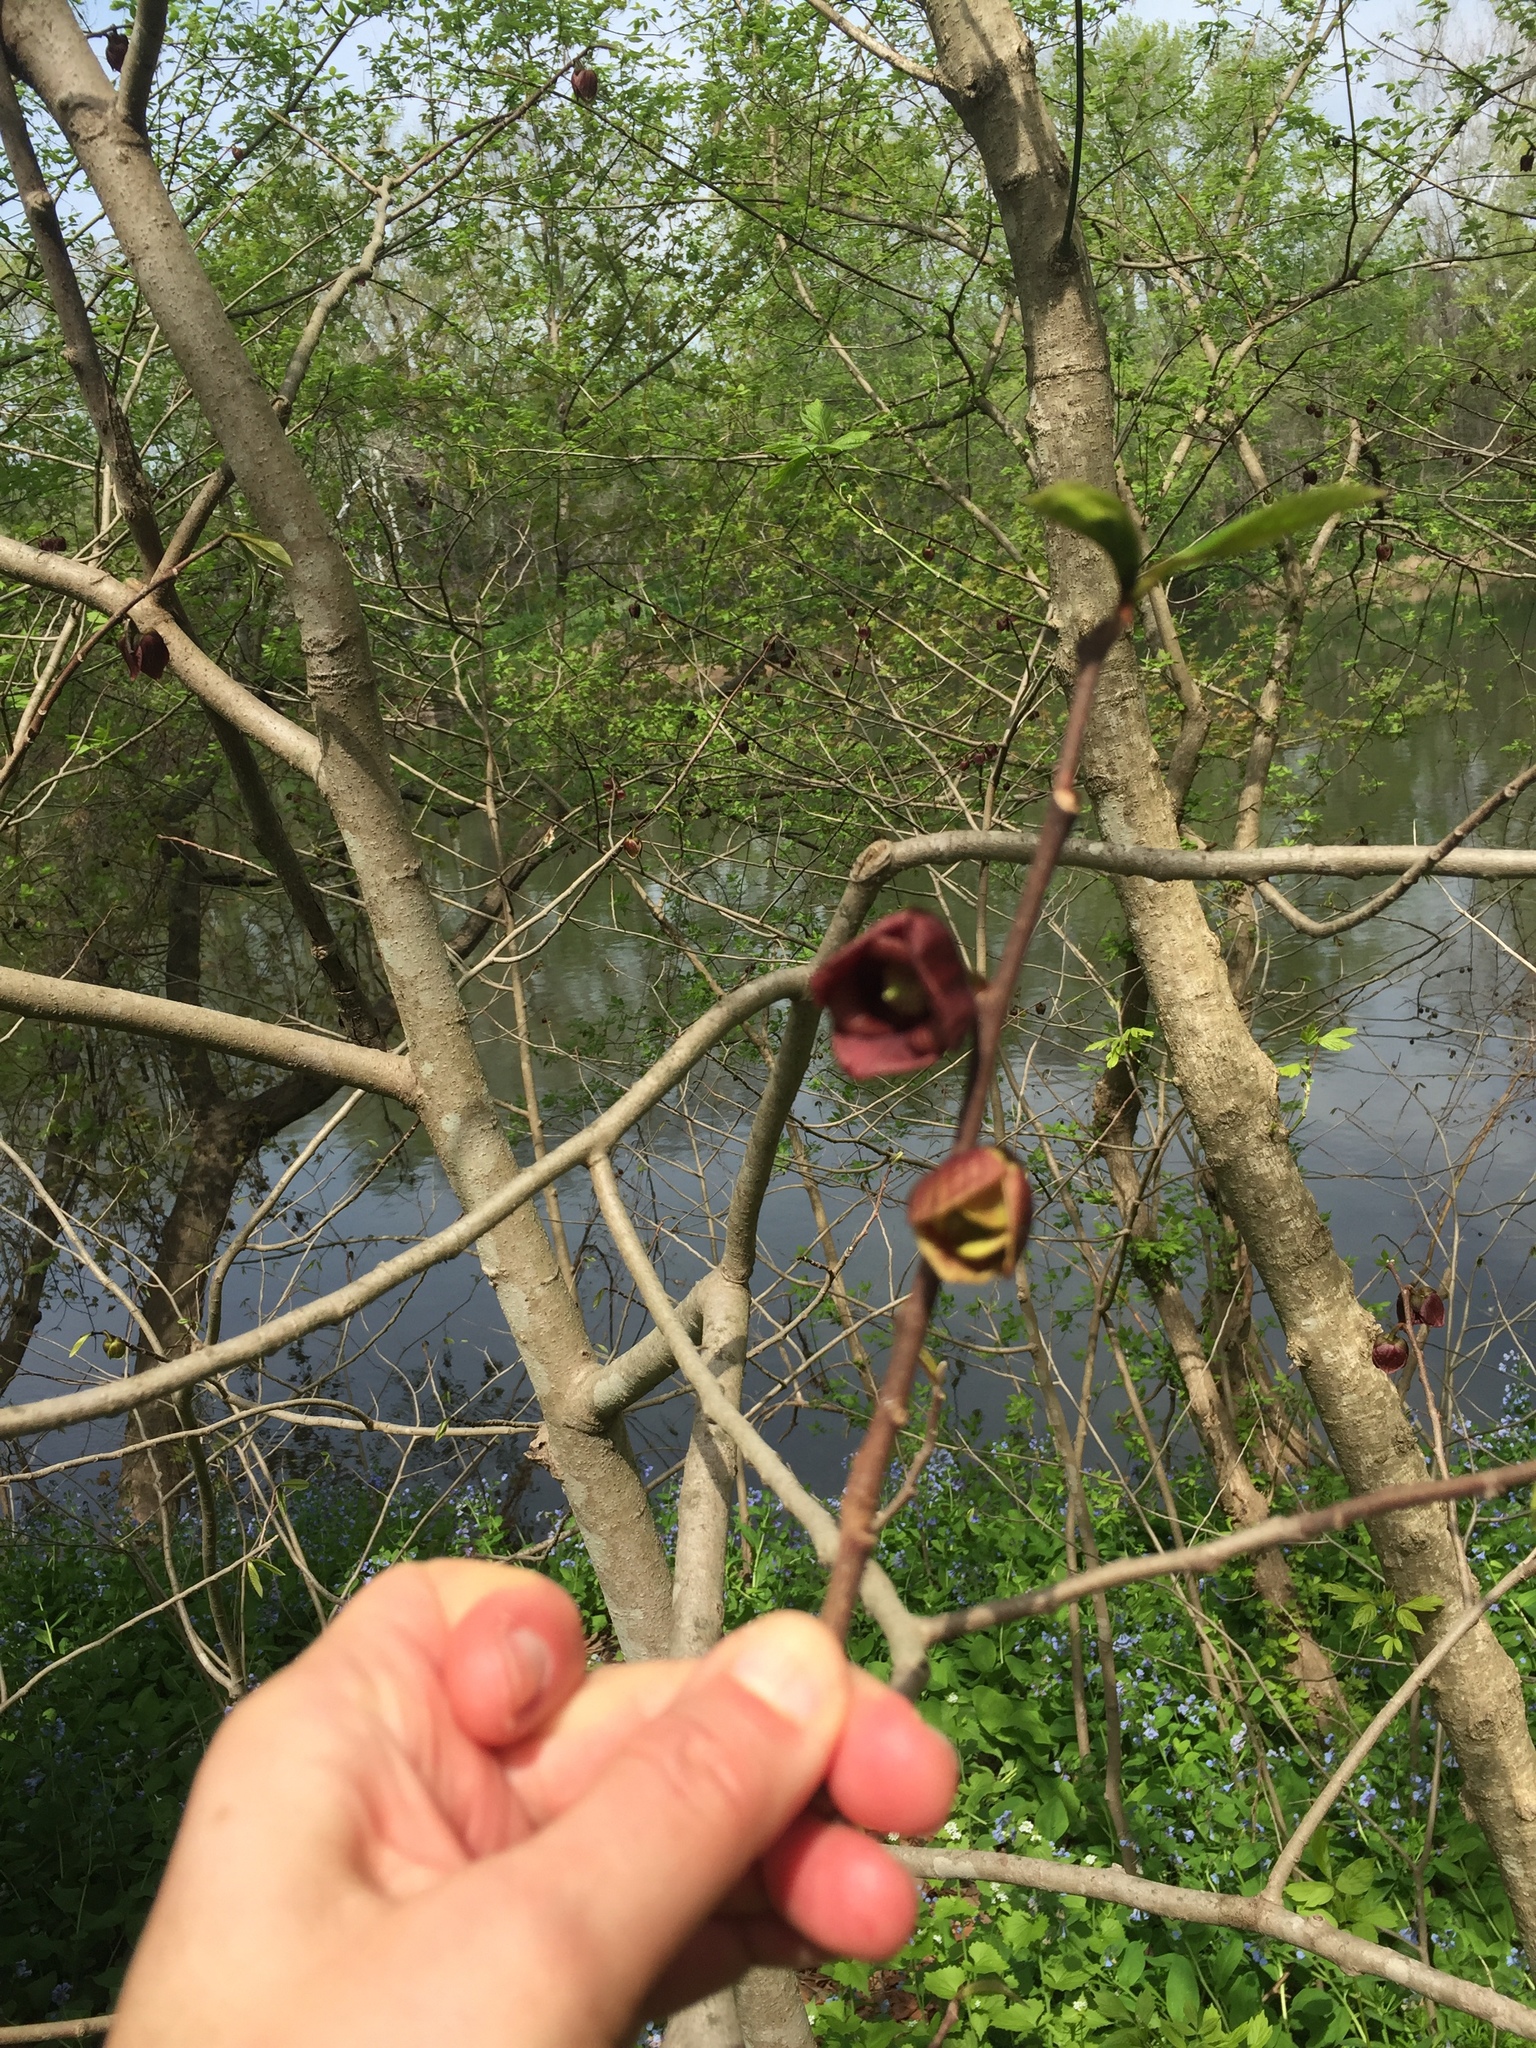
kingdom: Plantae
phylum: Tracheophyta
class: Magnoliopsida
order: Magnoliales
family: Annonaceae
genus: Asimina
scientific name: Asimina triloba
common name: Dog-banana
